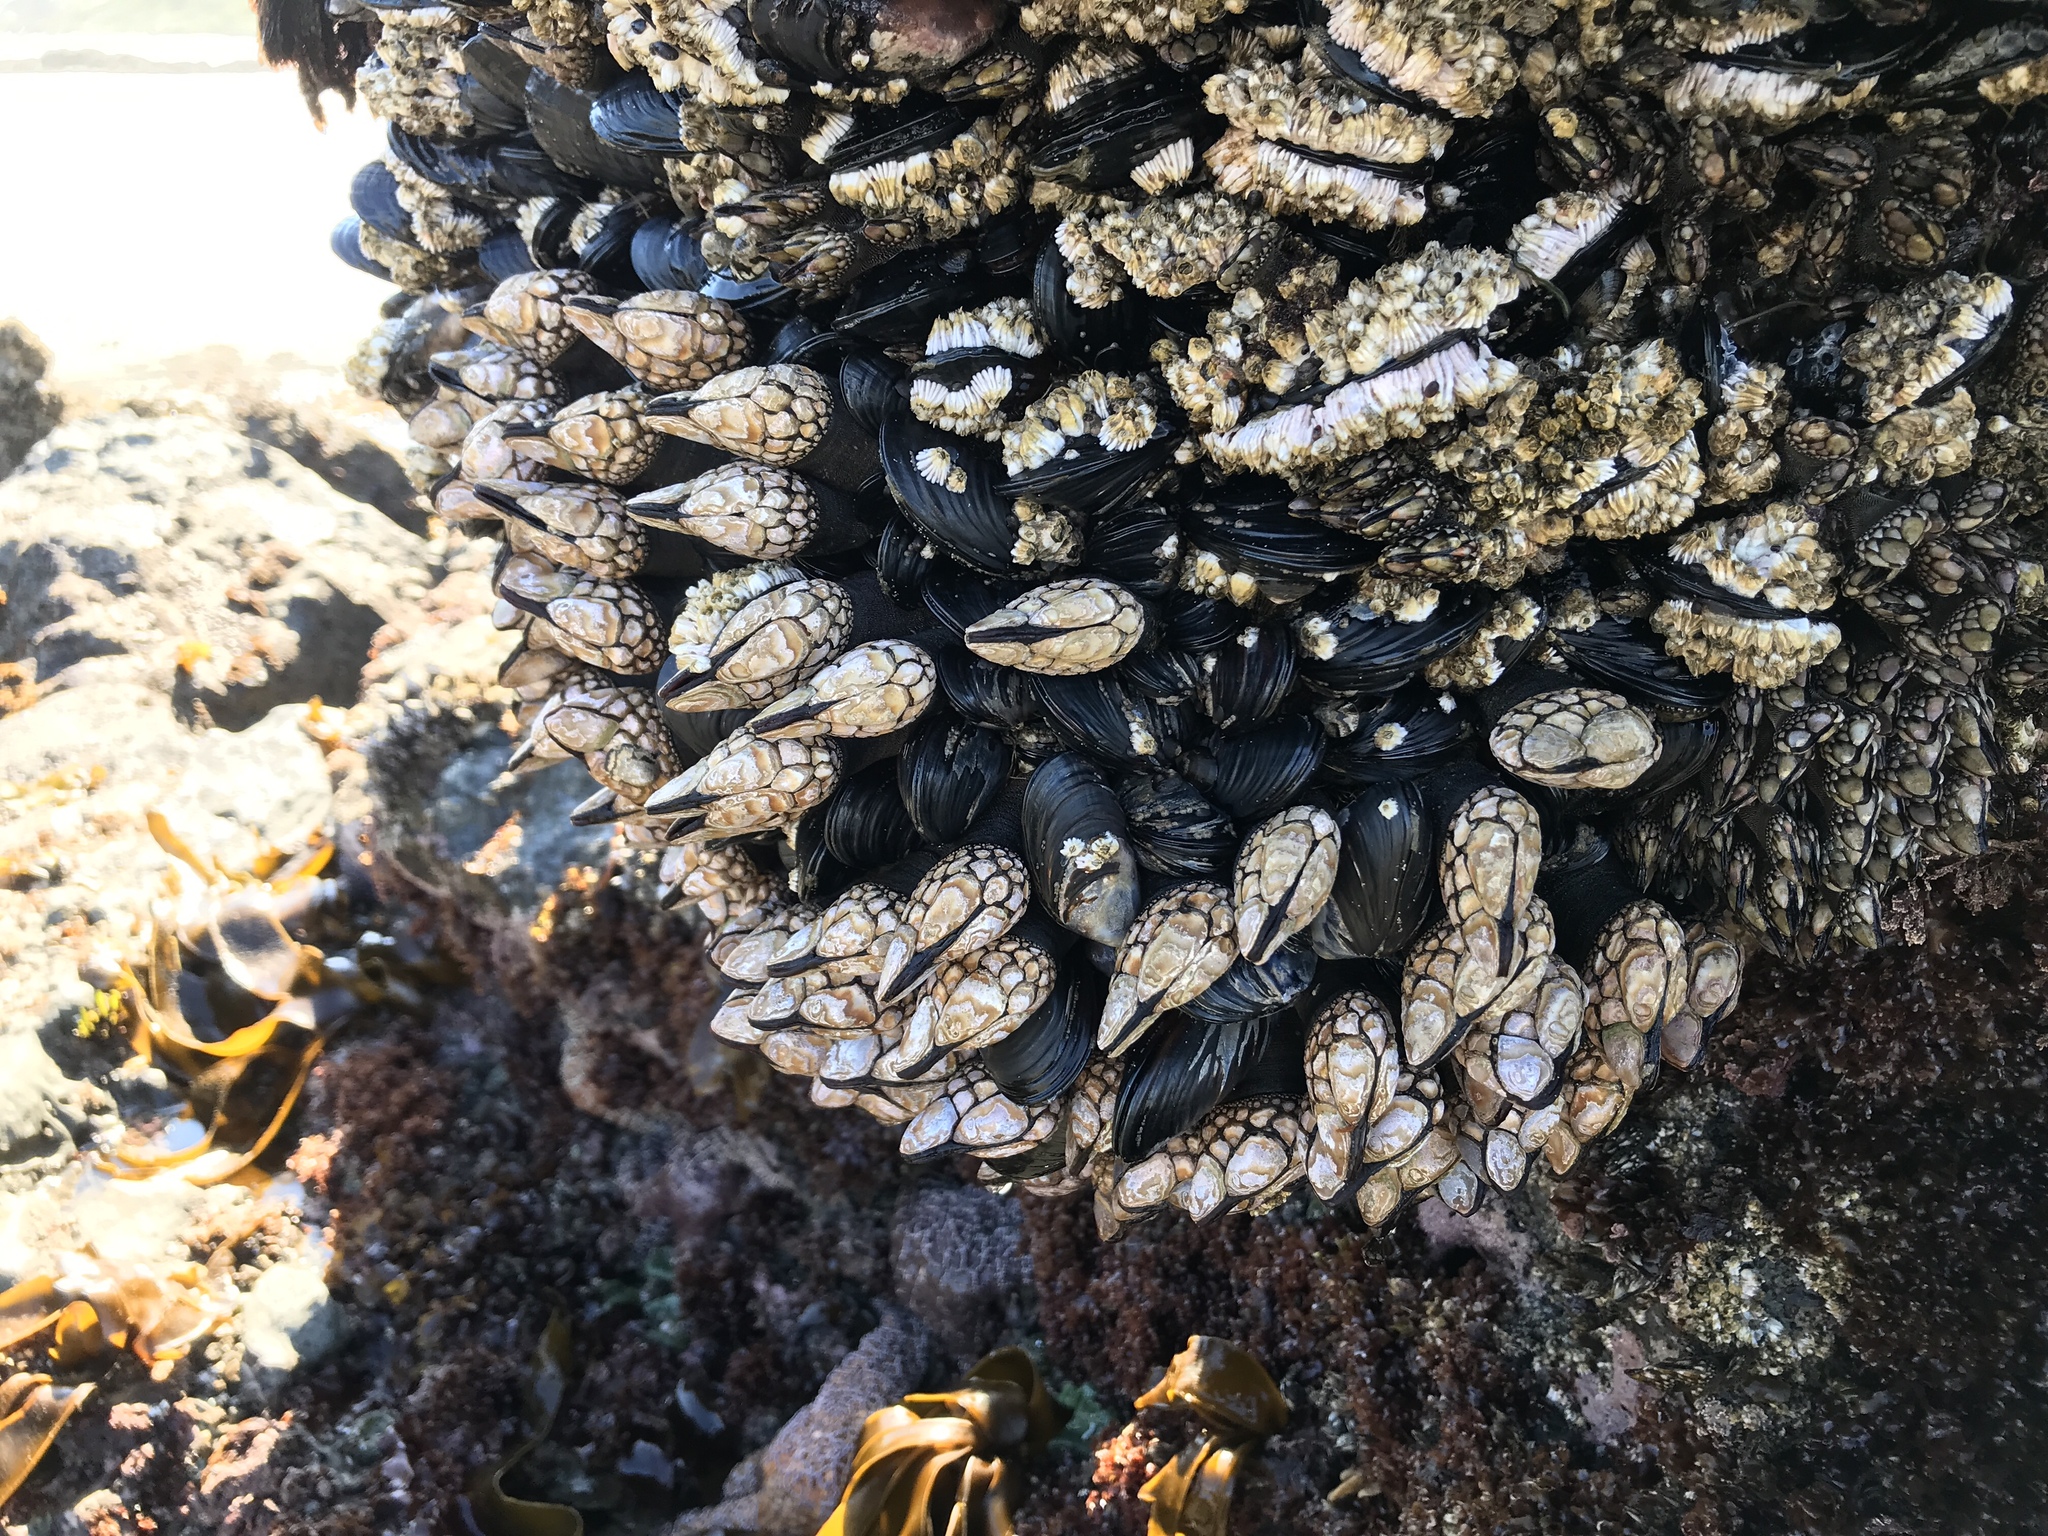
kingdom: Animalia
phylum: Arthropoda
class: Maxillopoda
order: Pedunculata
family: Pollicipedidae
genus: Pollicipes
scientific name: Pollicipes polymerus
